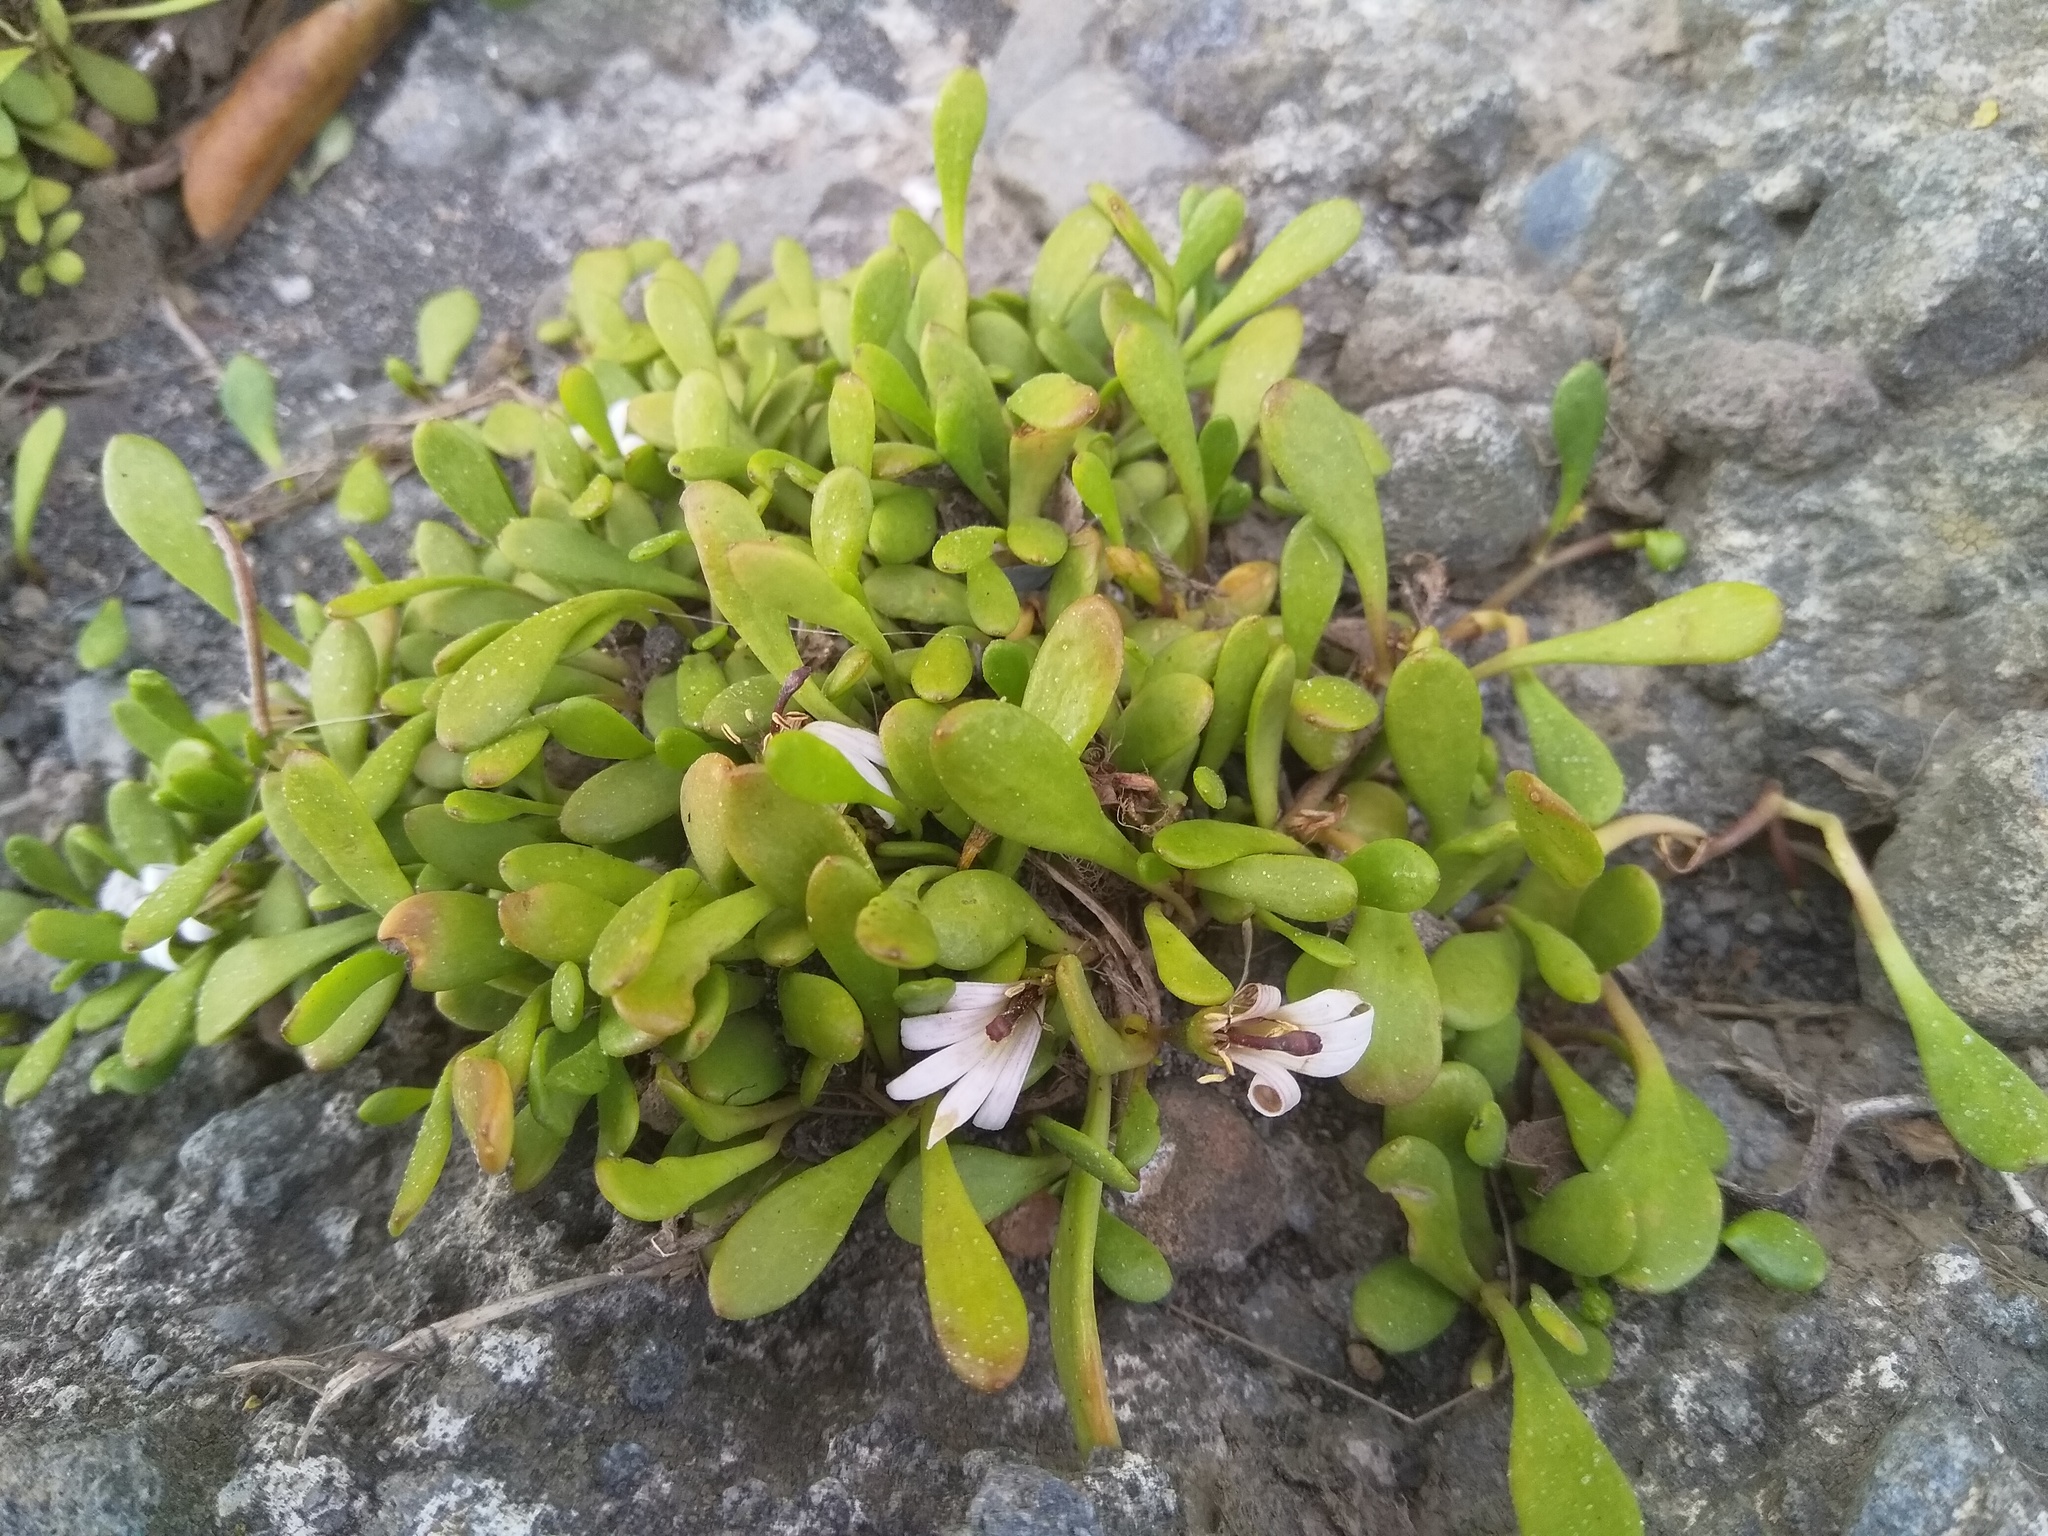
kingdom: Plantae
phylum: Tracheophyta
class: Magnoliopsida
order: Asterales
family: Goodeniaceae
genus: Goodenia
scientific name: Goodenia radicans
